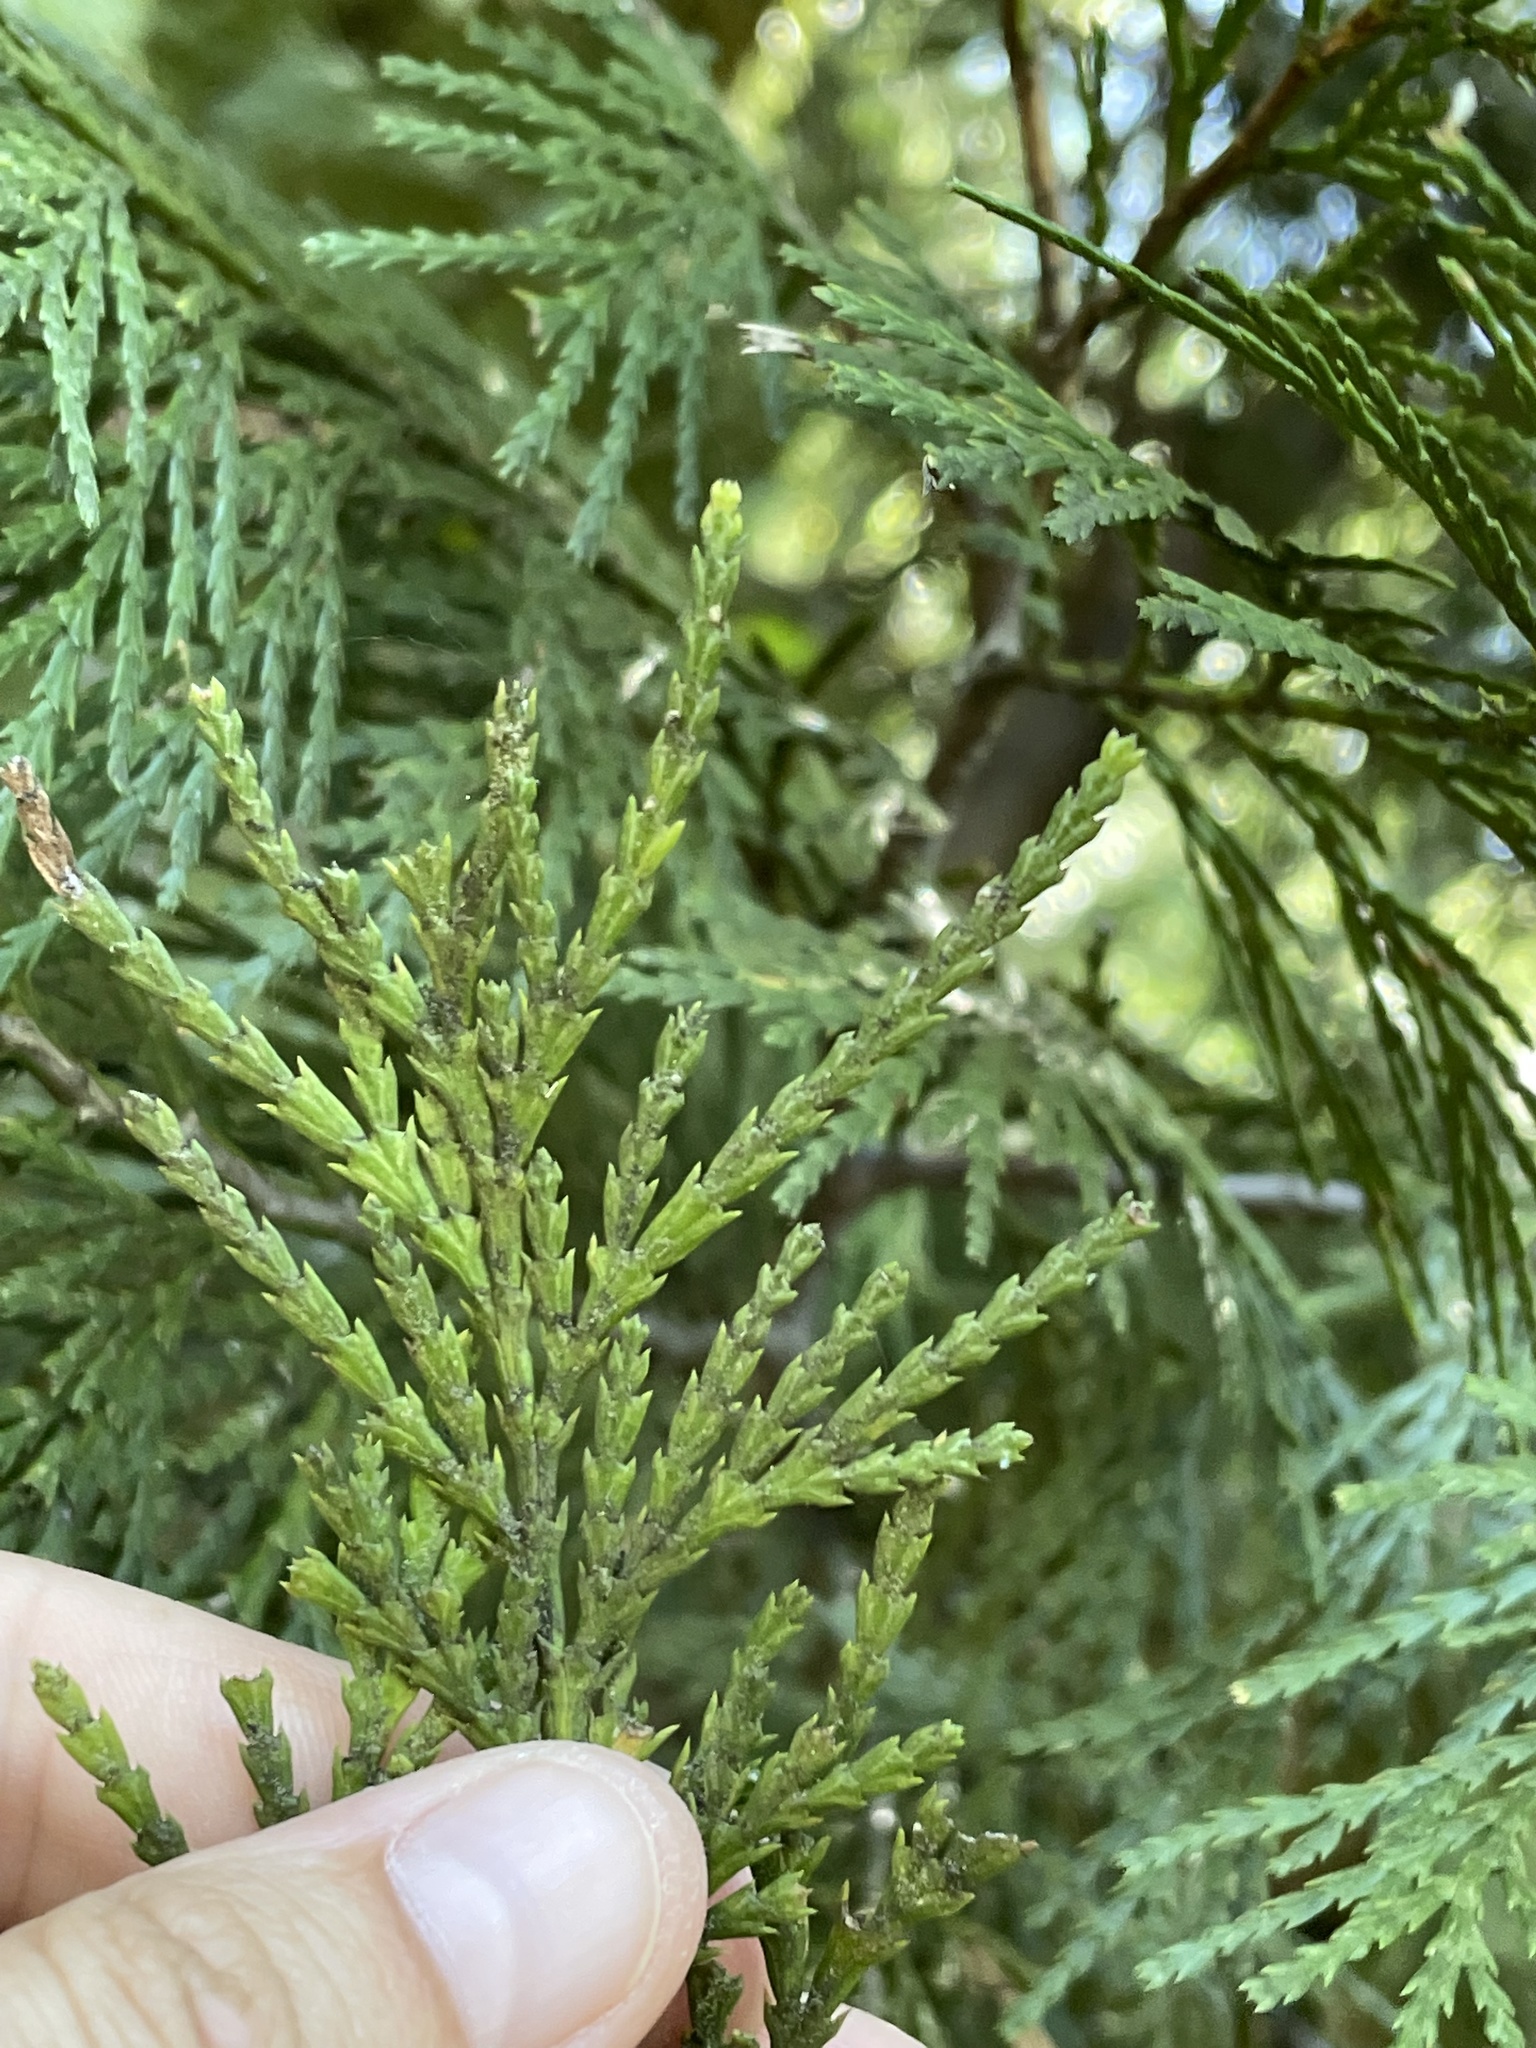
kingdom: Plantae
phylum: Tracheophyta
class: Pinopsida
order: Pinales
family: Cupressaceae
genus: Calocedrus
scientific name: Calocedrus decurrens
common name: Californian incense-cedar
